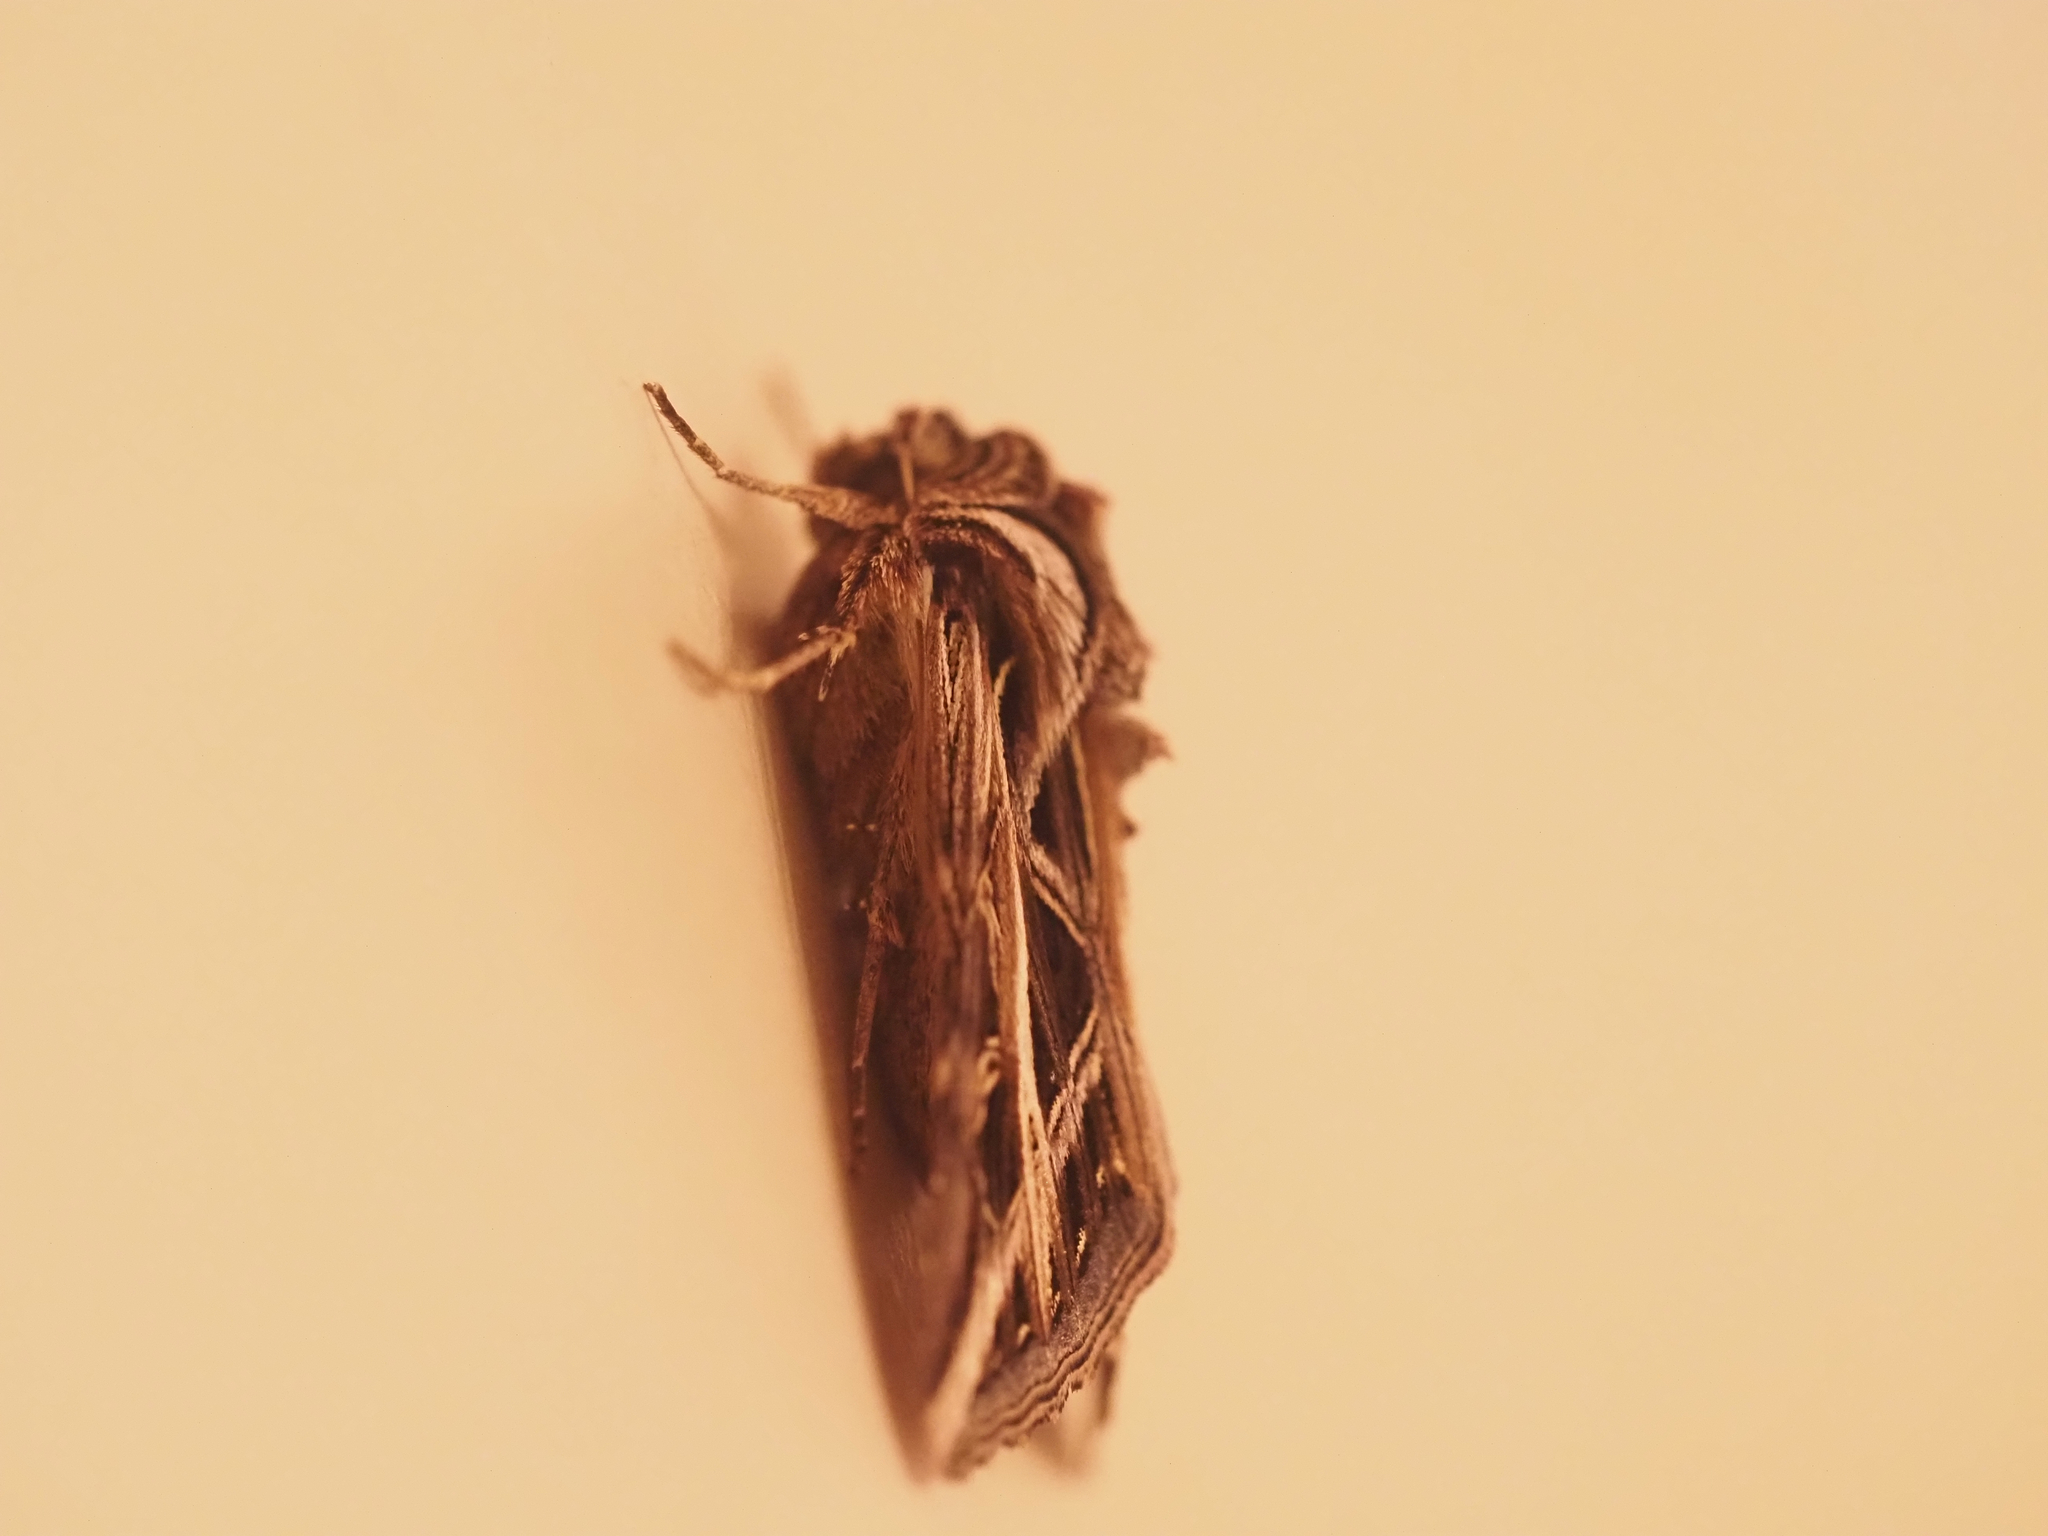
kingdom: Animalia
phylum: Arthropoda
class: Insecta
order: Lepidoptera
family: Noctuidae
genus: Dargida
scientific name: Dargida procinctus
